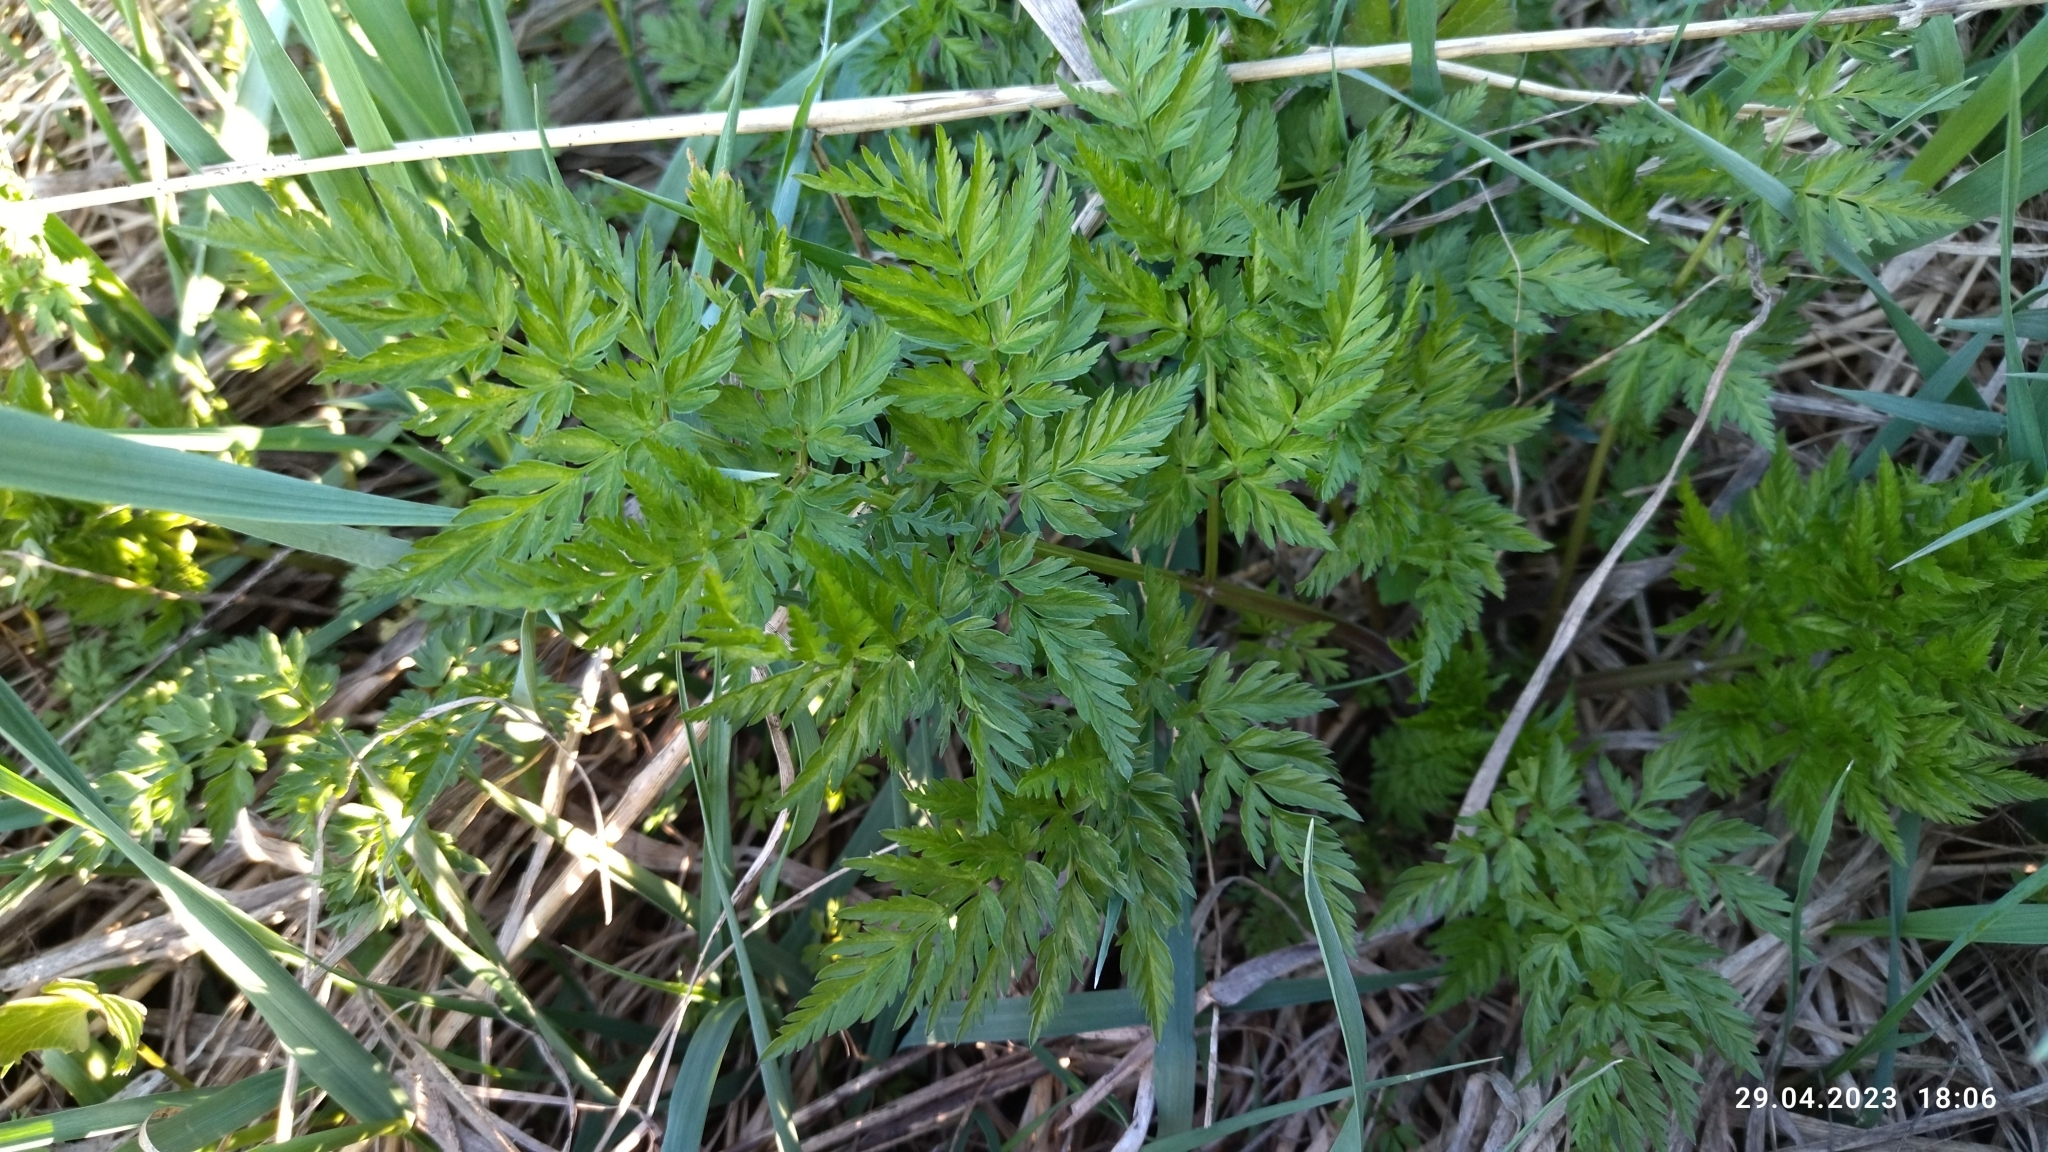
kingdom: Plantae
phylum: Tracheophyta
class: Magnoliopsida
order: Apiales
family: Apiaceae
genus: Anthriscus
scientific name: Anthriscus sylvestris
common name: Cow parsley
